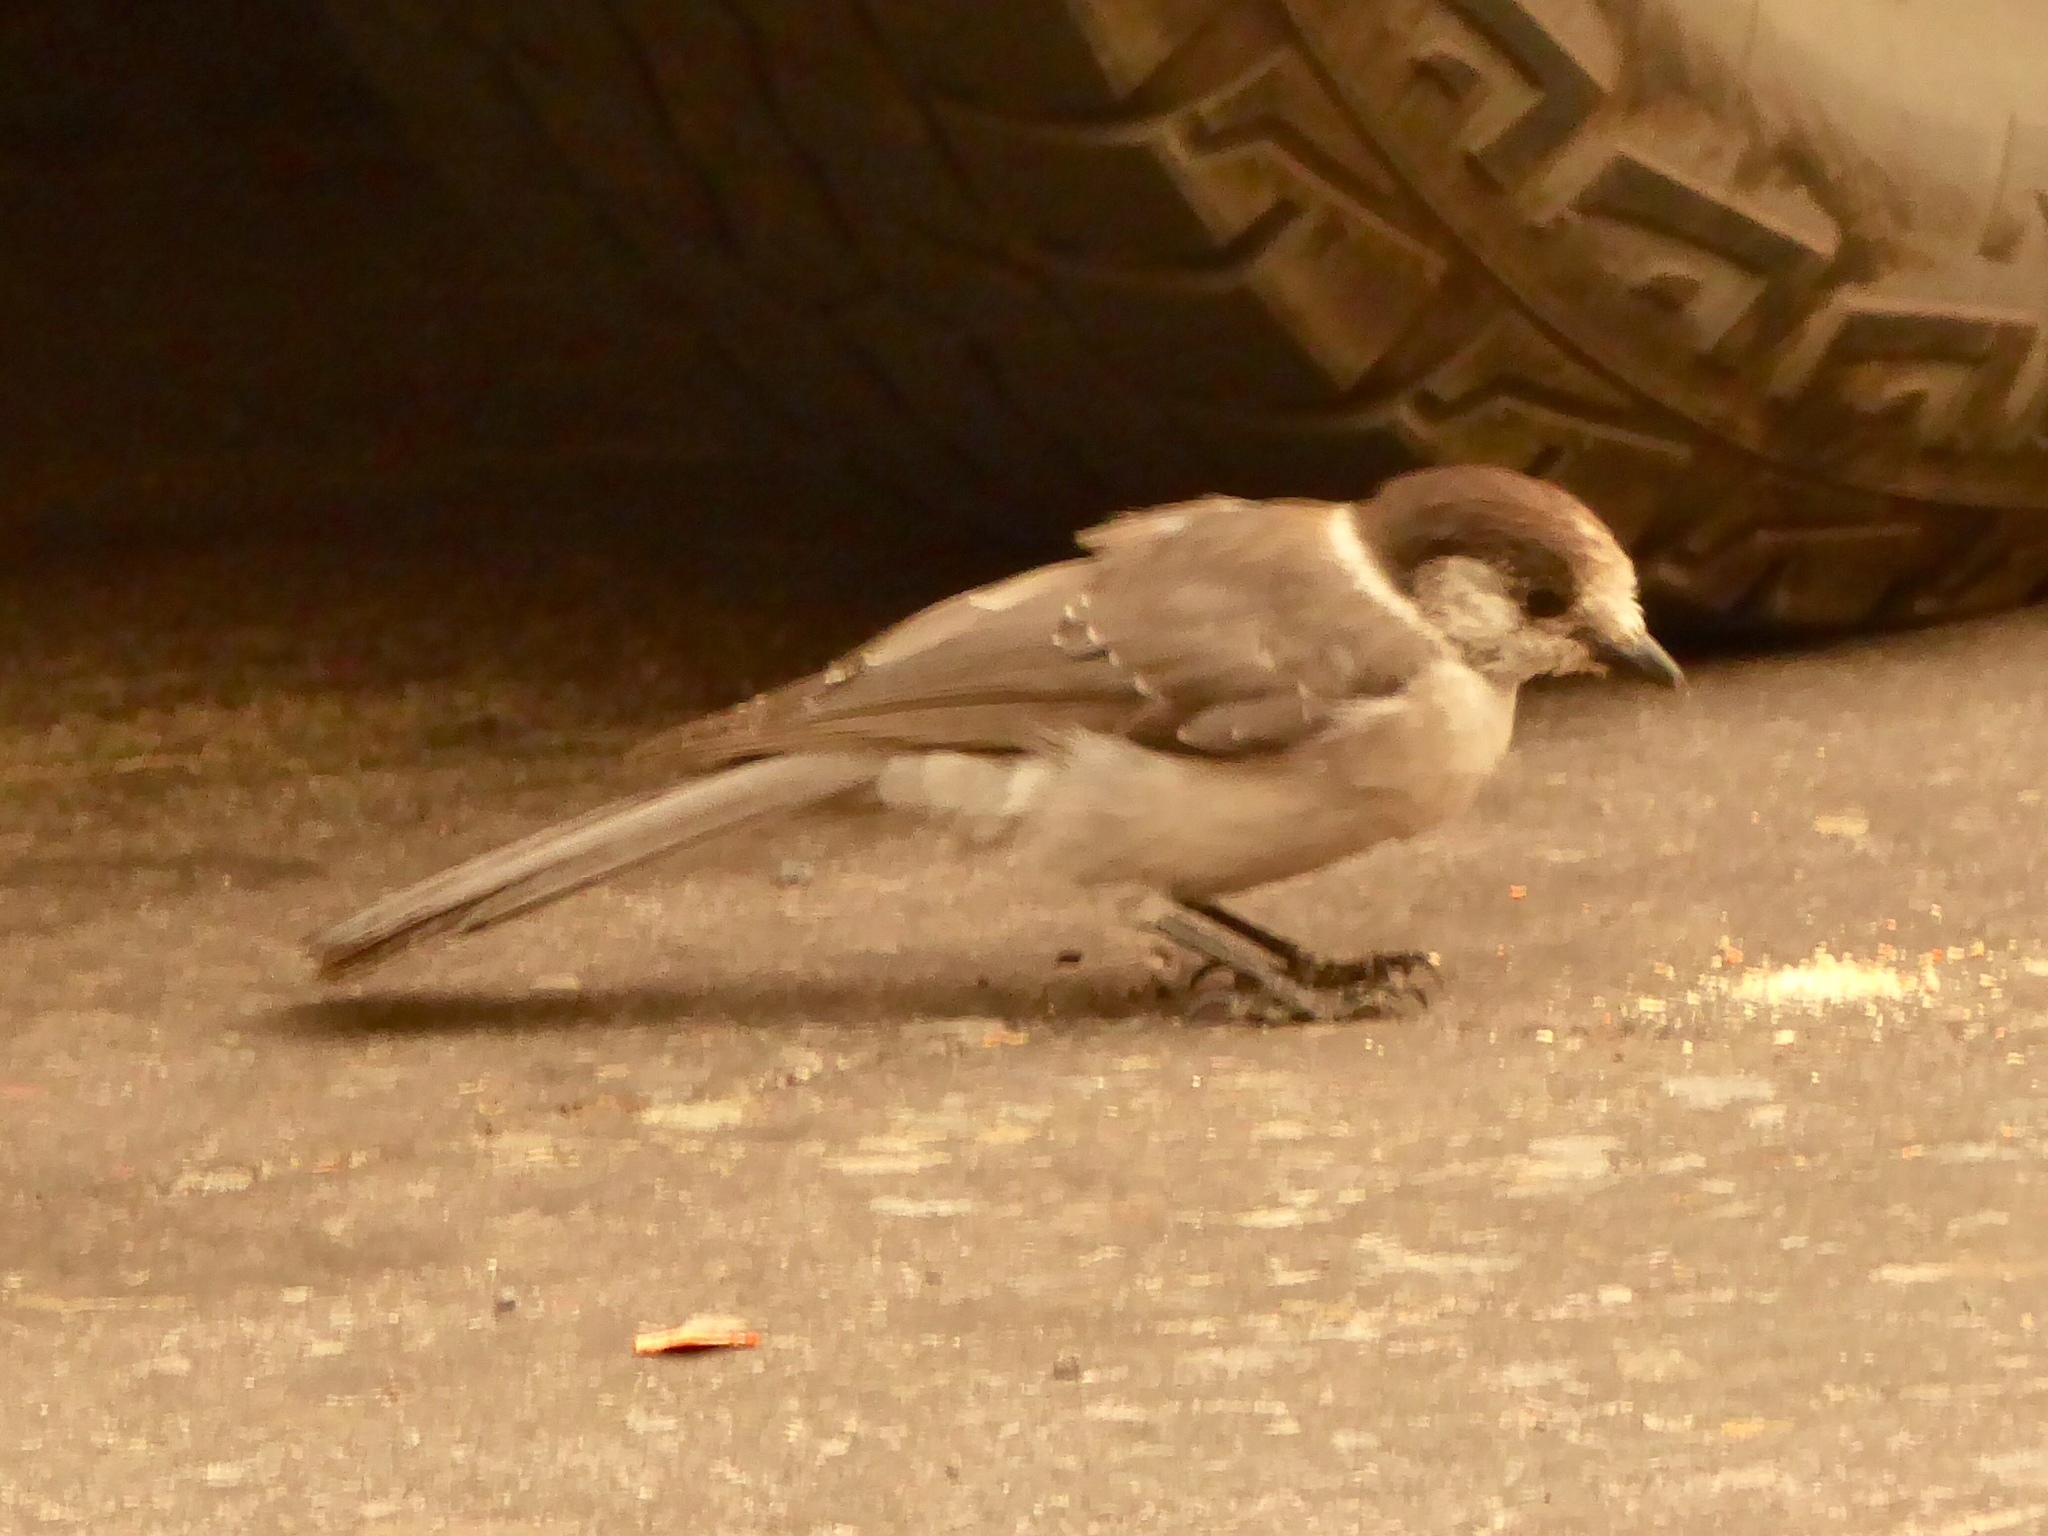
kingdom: Animalia
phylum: Chordata
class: Aves
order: Passeriformes
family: Corvidae
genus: Perisoreus
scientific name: Perisoreus canadensis
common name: Gray jay
